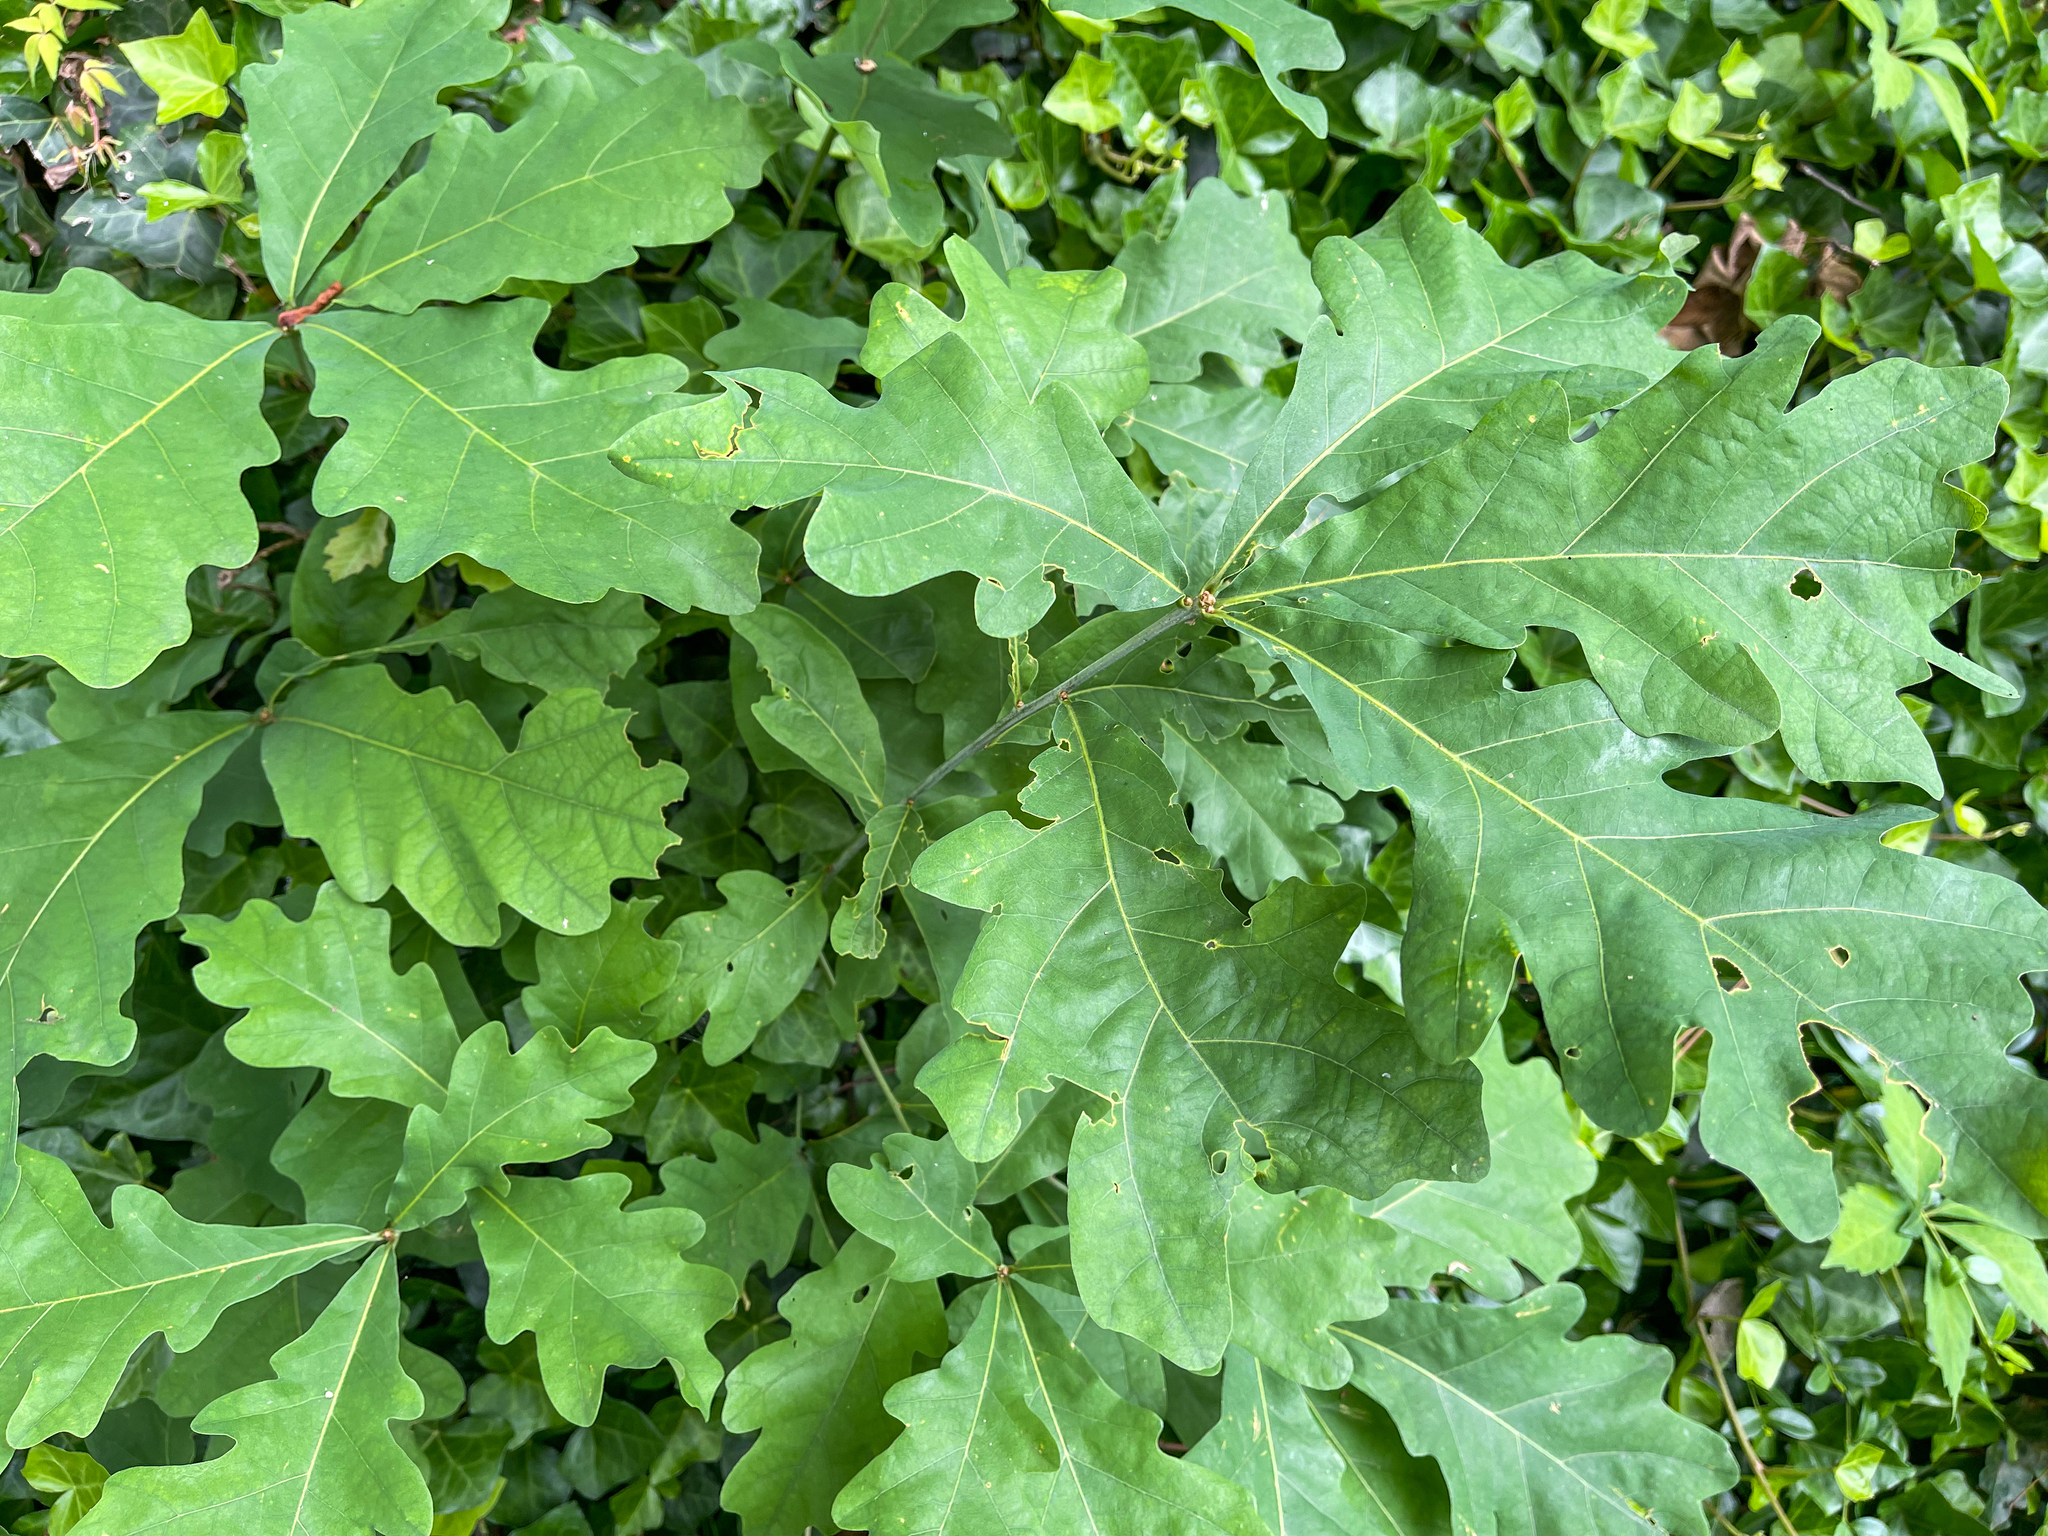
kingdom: Plantae
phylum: Tracheophyta
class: Magnoliopsida
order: Fagales
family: Fagaceae
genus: Quercus
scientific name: Quercus alba
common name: White oak
